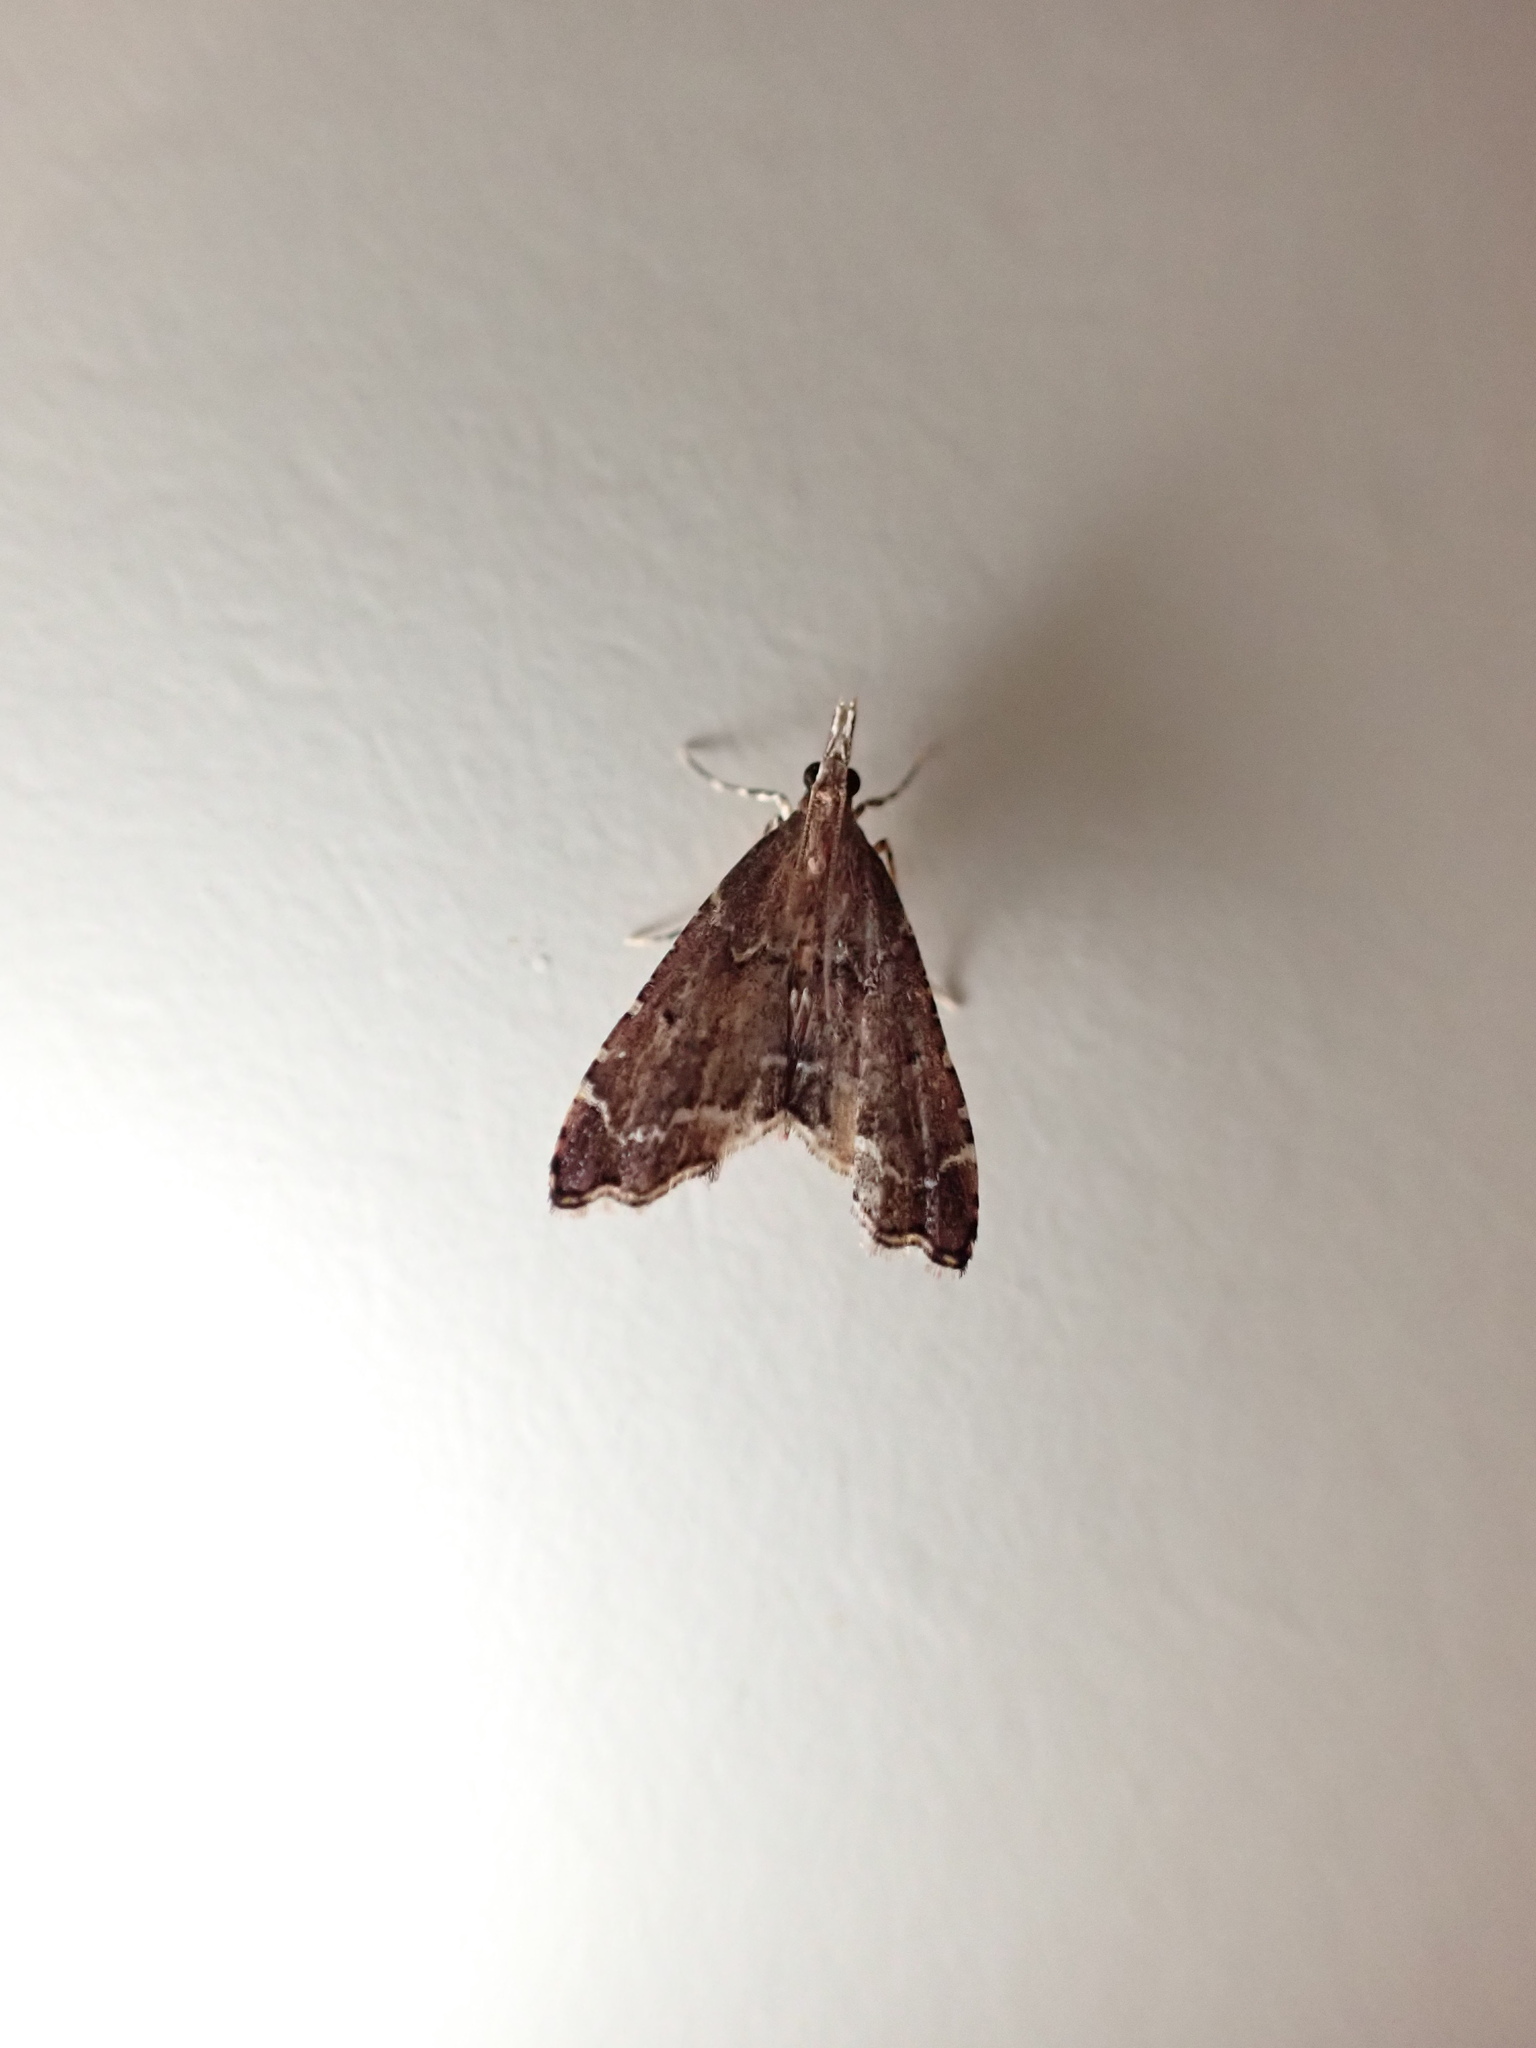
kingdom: Animalia
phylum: Arthropoda
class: Insecta
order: Lepidoptera
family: Crambidae
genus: Diplopseustis
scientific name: Diplopseustis perieresalis
